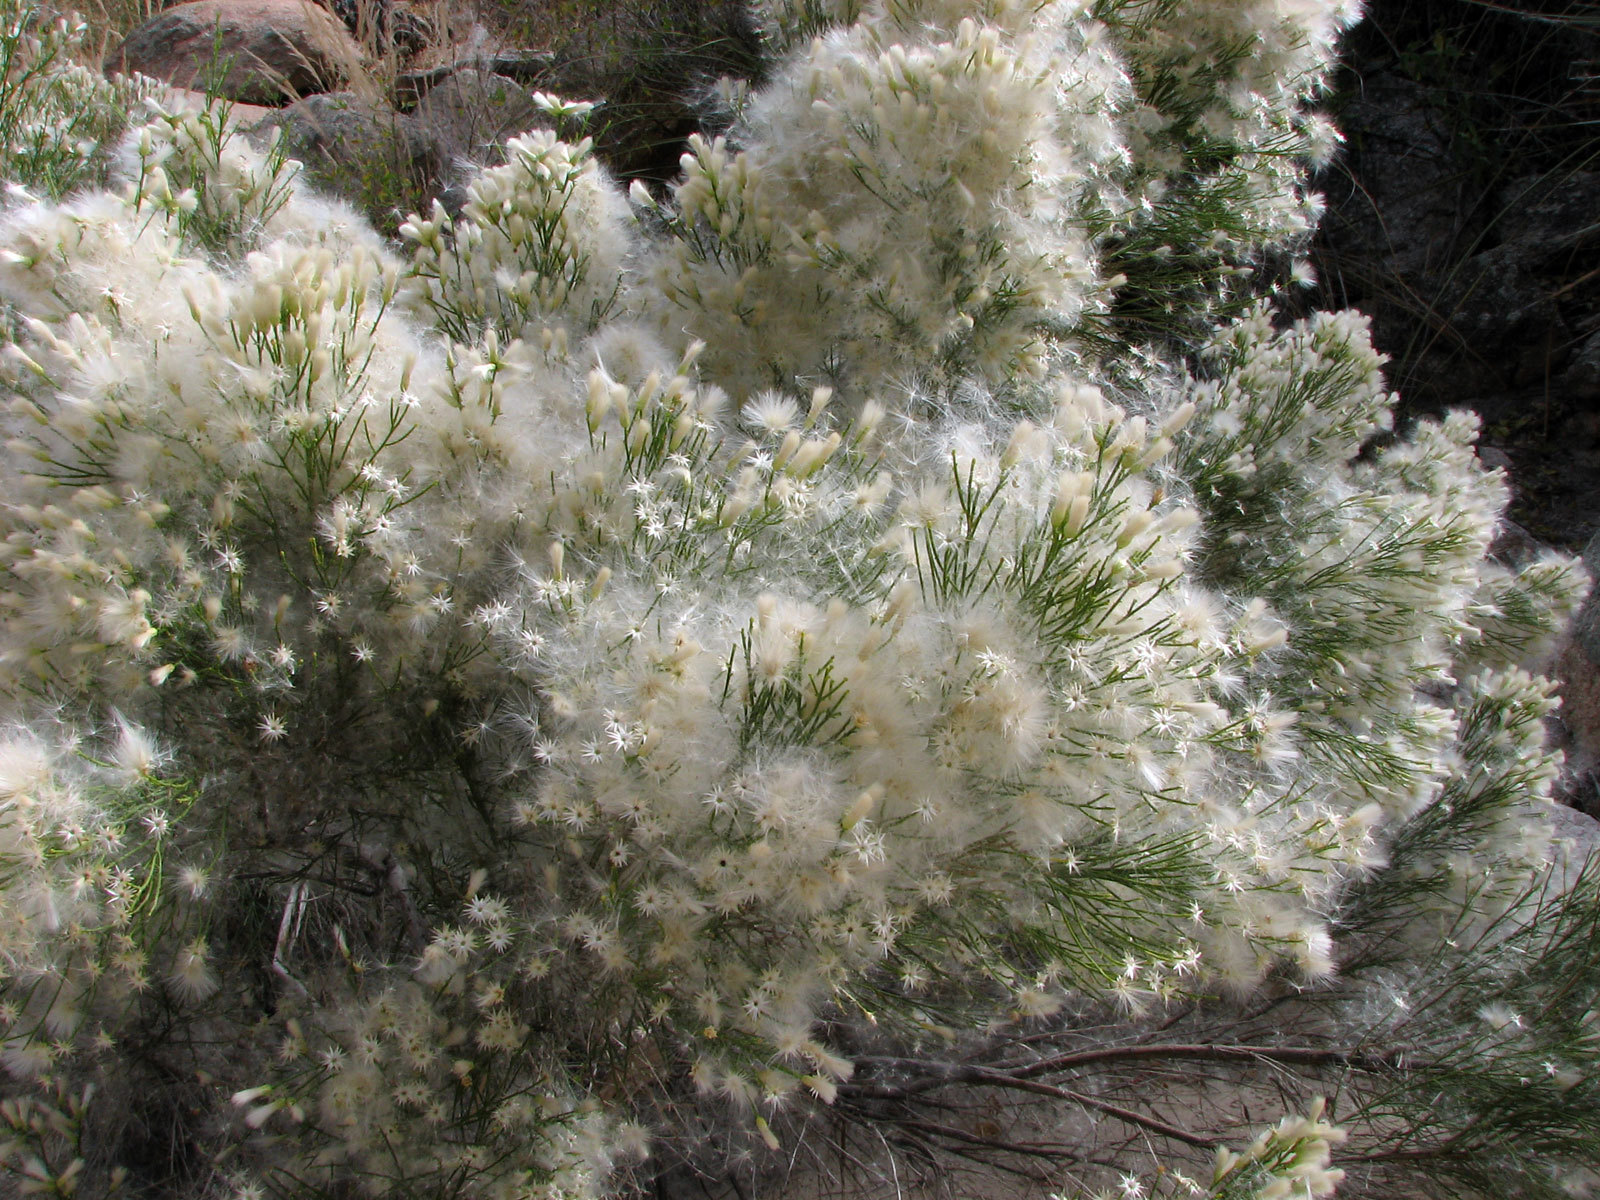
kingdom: Plantae
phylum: Tracheophyta
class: Magnoliopsida
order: Asterales
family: Asteraceae
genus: Baccharis
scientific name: Baccharis sarothroides
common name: Desert-broom
